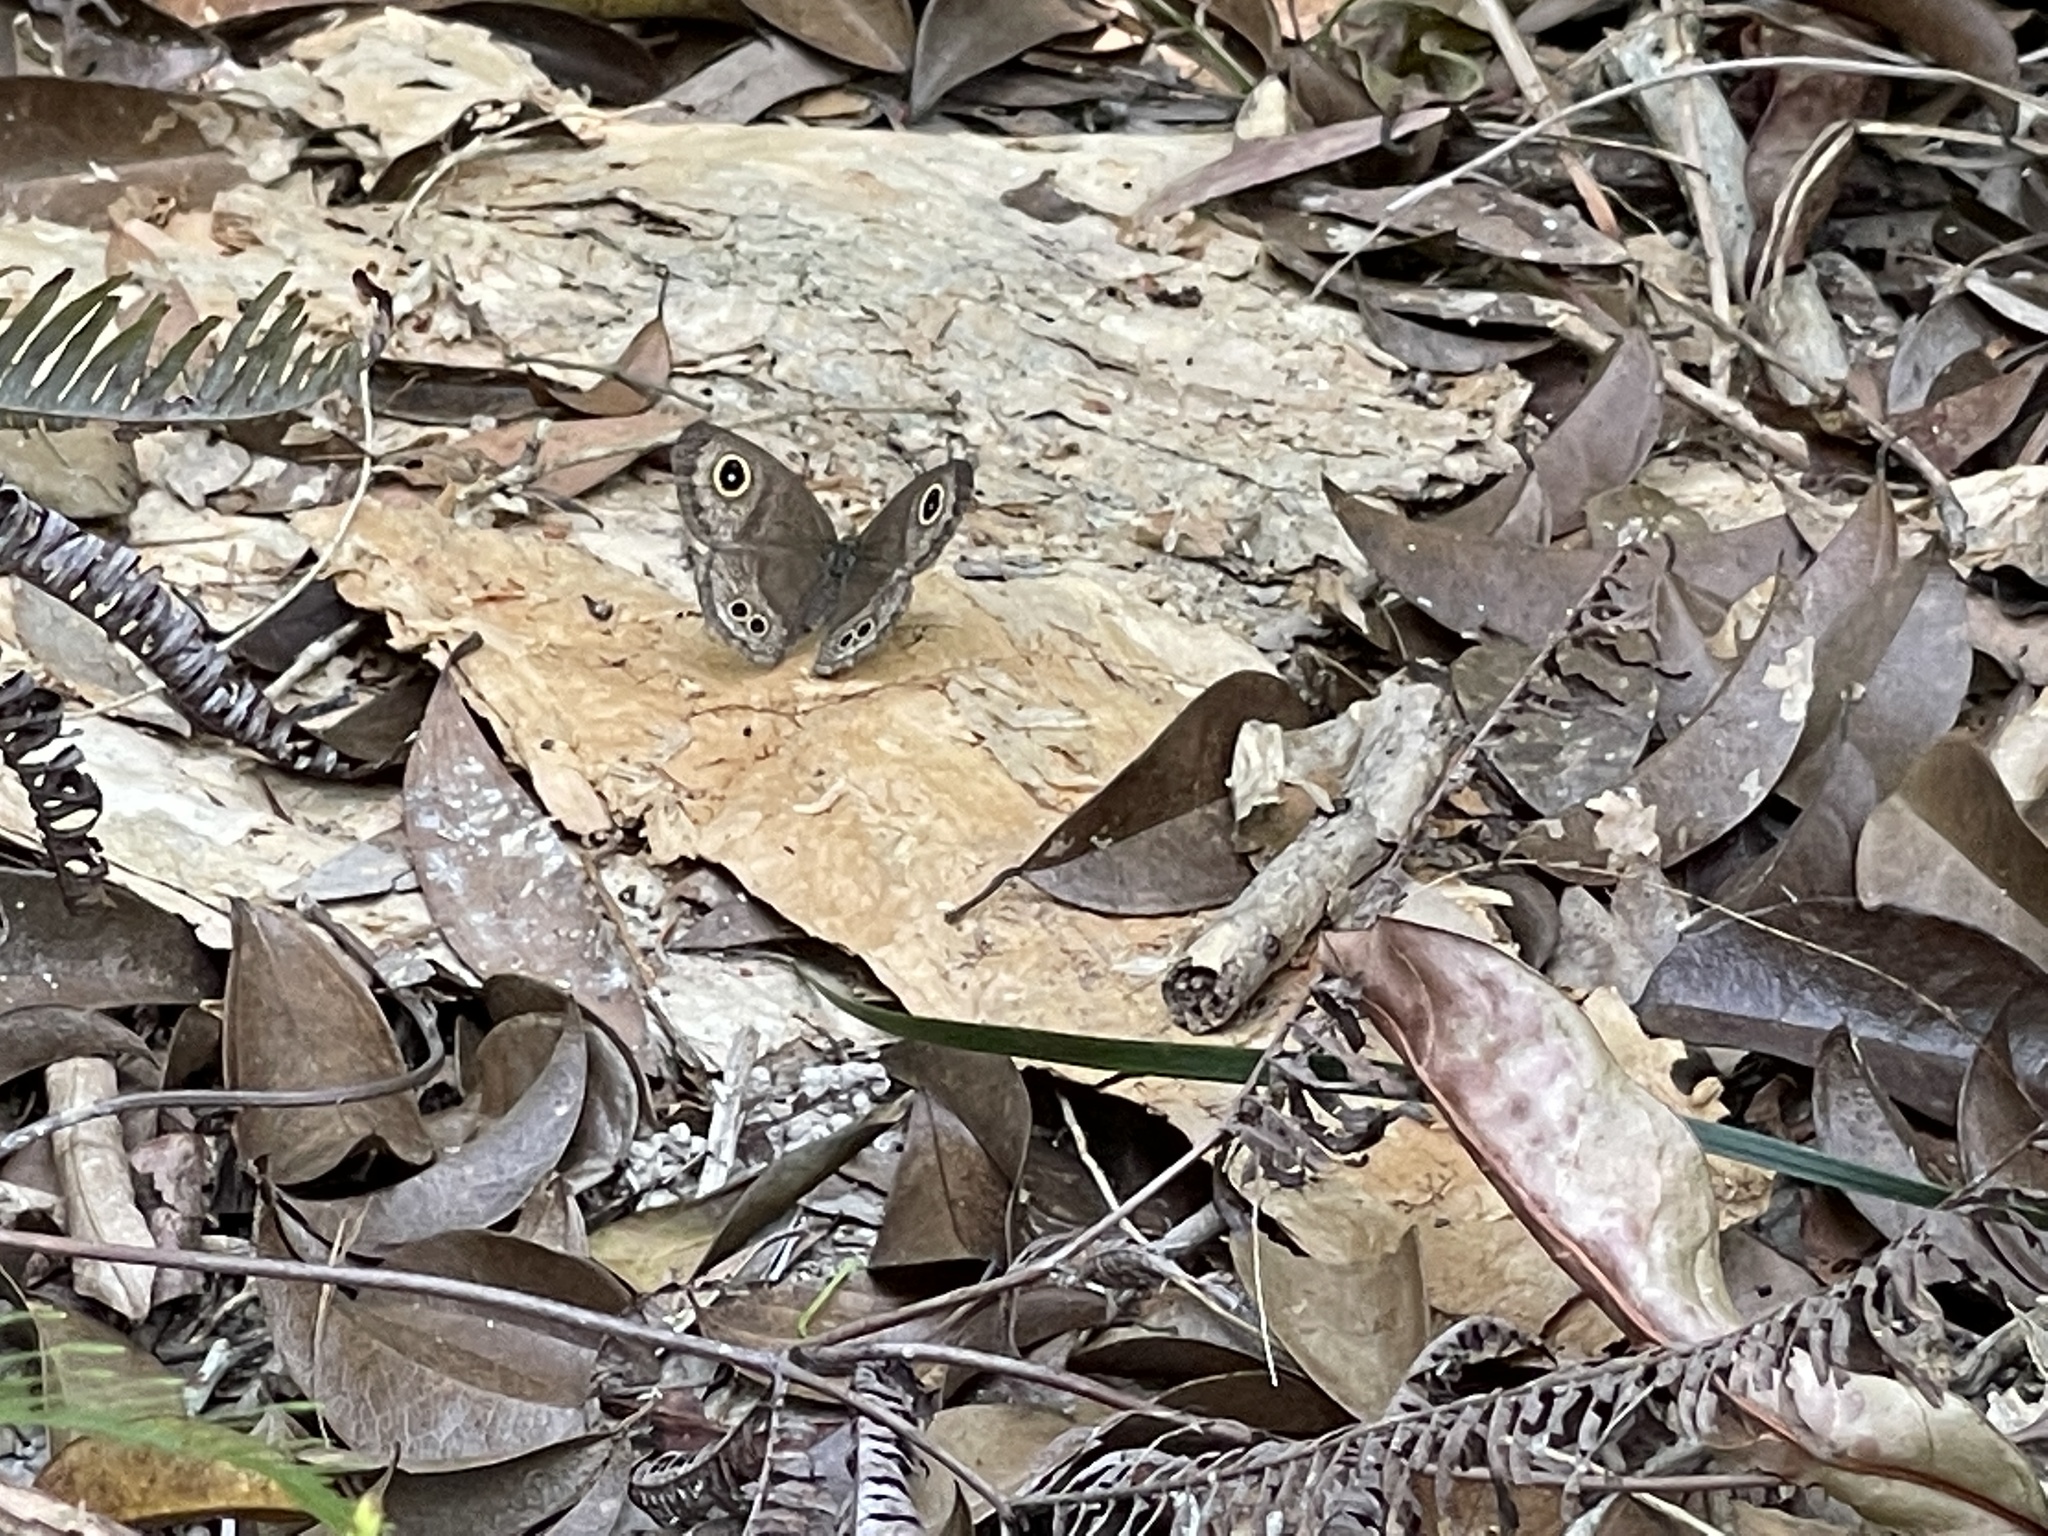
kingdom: Animalia
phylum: Arthropoda
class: Insecta
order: Lepidoptera
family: Nymphalidae
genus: Ypthima
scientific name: Ypthima baldus
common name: Common five-ring
